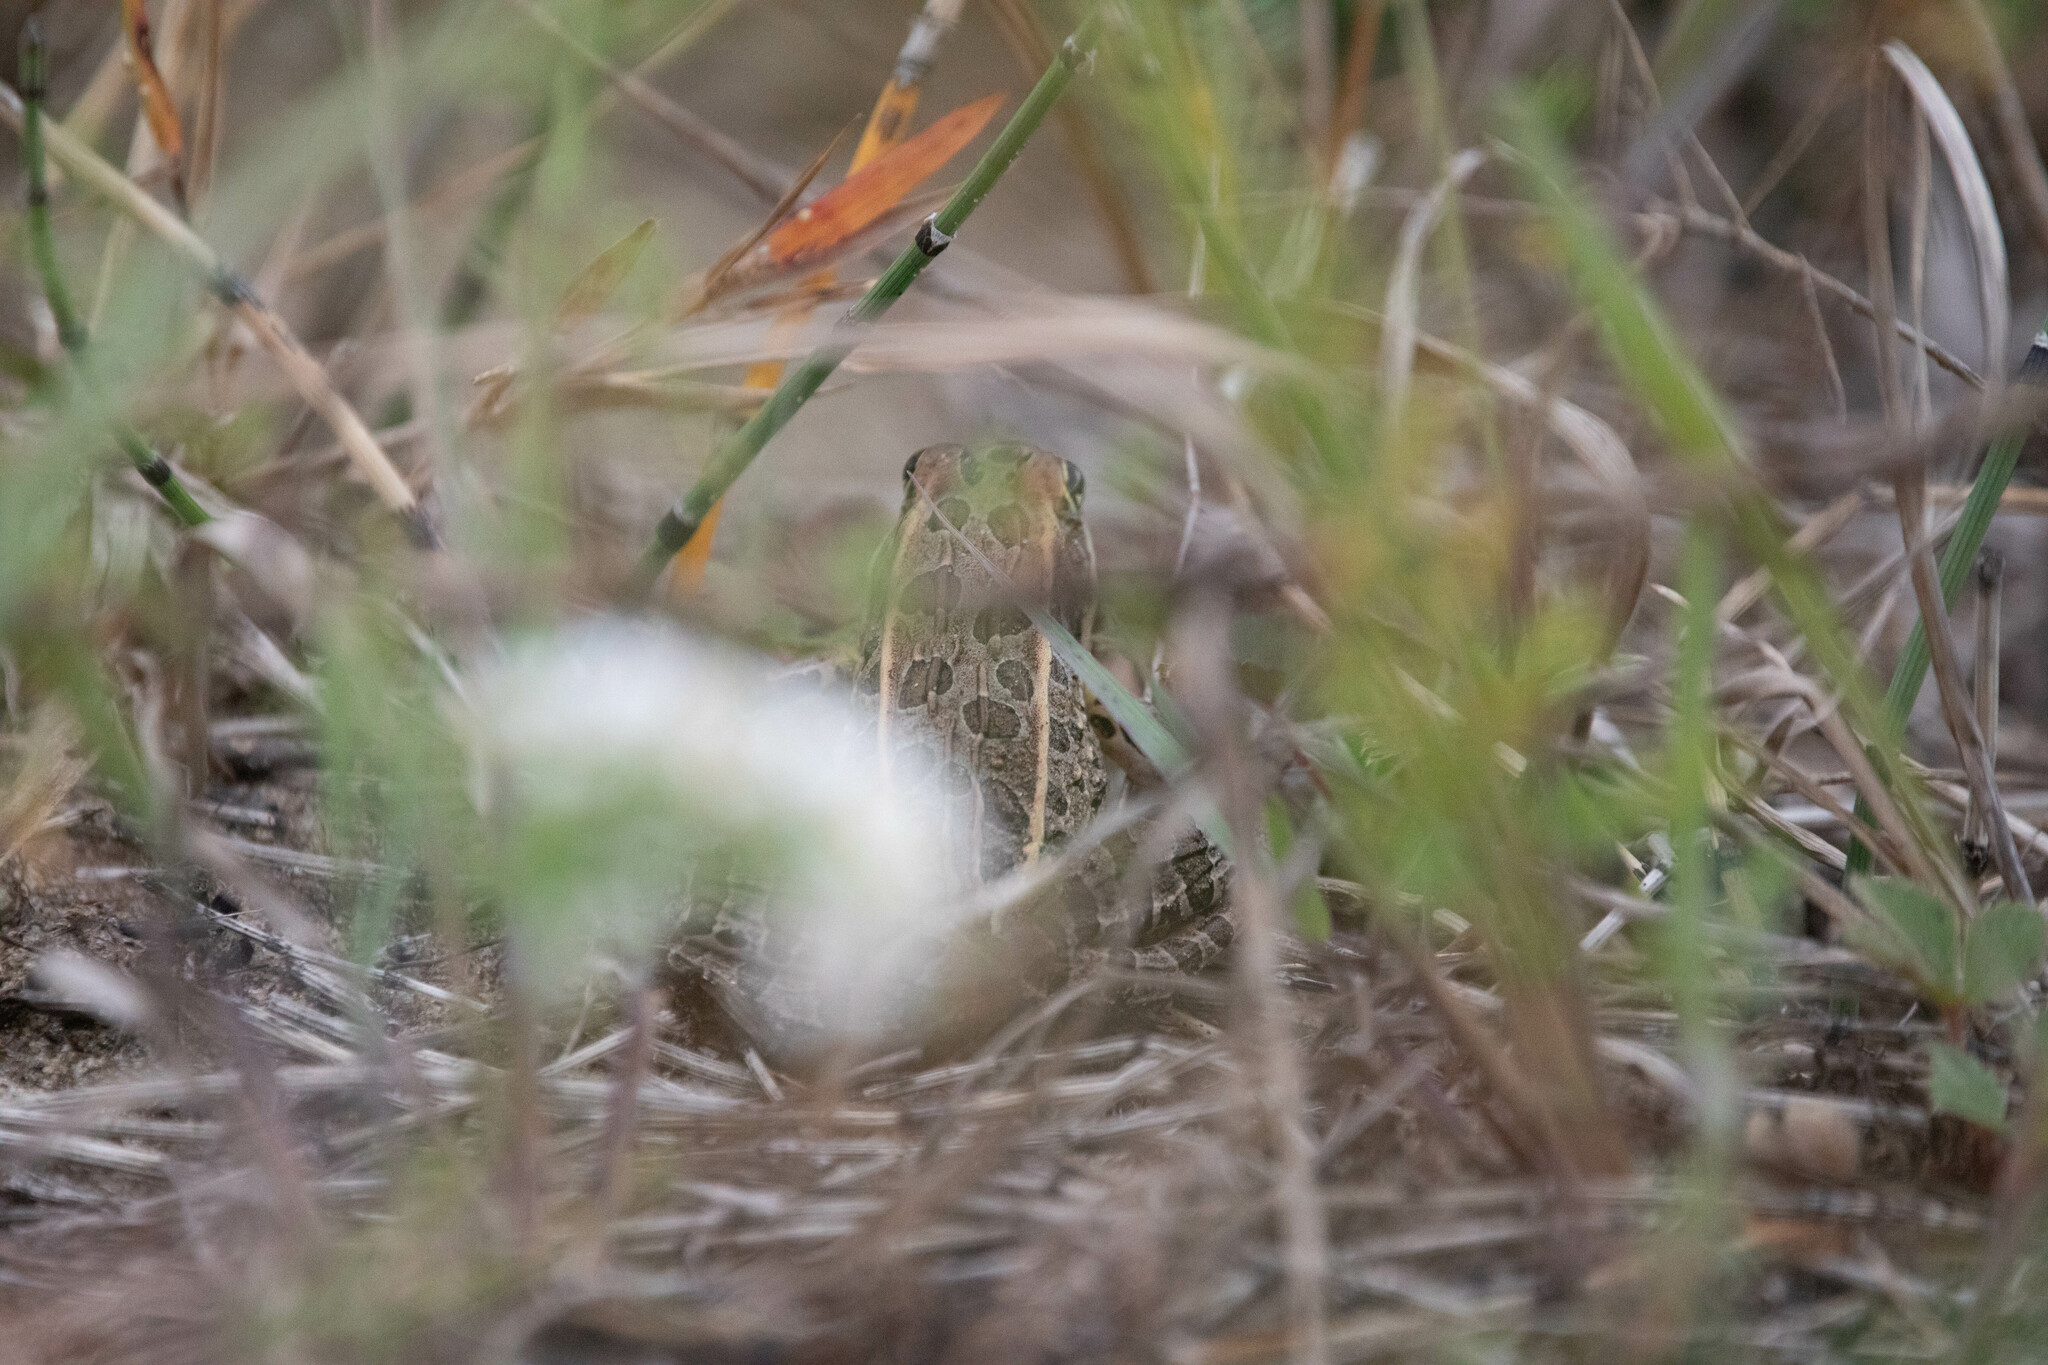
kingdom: Animalia
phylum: Chordata
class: Amphibia
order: Anura
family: Ranidae
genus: Lithobates
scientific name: Lithobates pipiens
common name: Northern leopard frog
